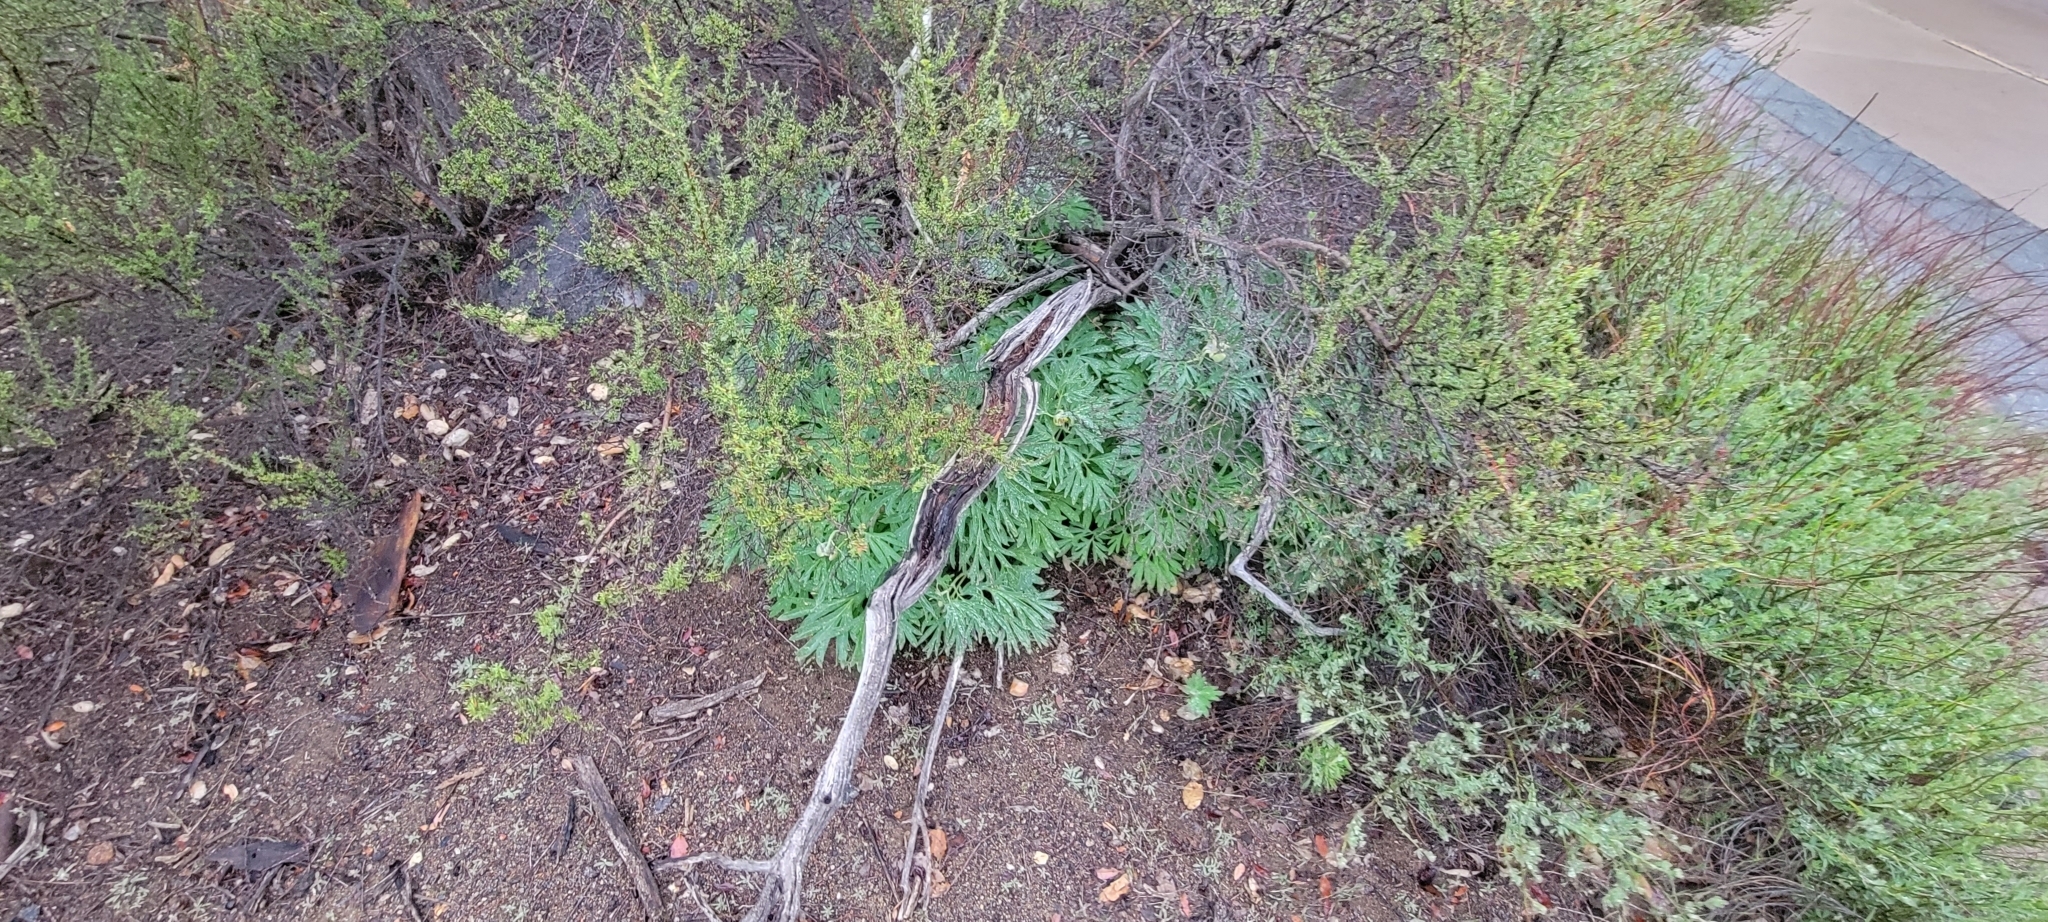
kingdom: Plantae
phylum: Tracheophyta
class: Magnoliopsida
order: Saxifragales
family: Paeoniaceae
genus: Paeonia
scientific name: Paeonia californica
